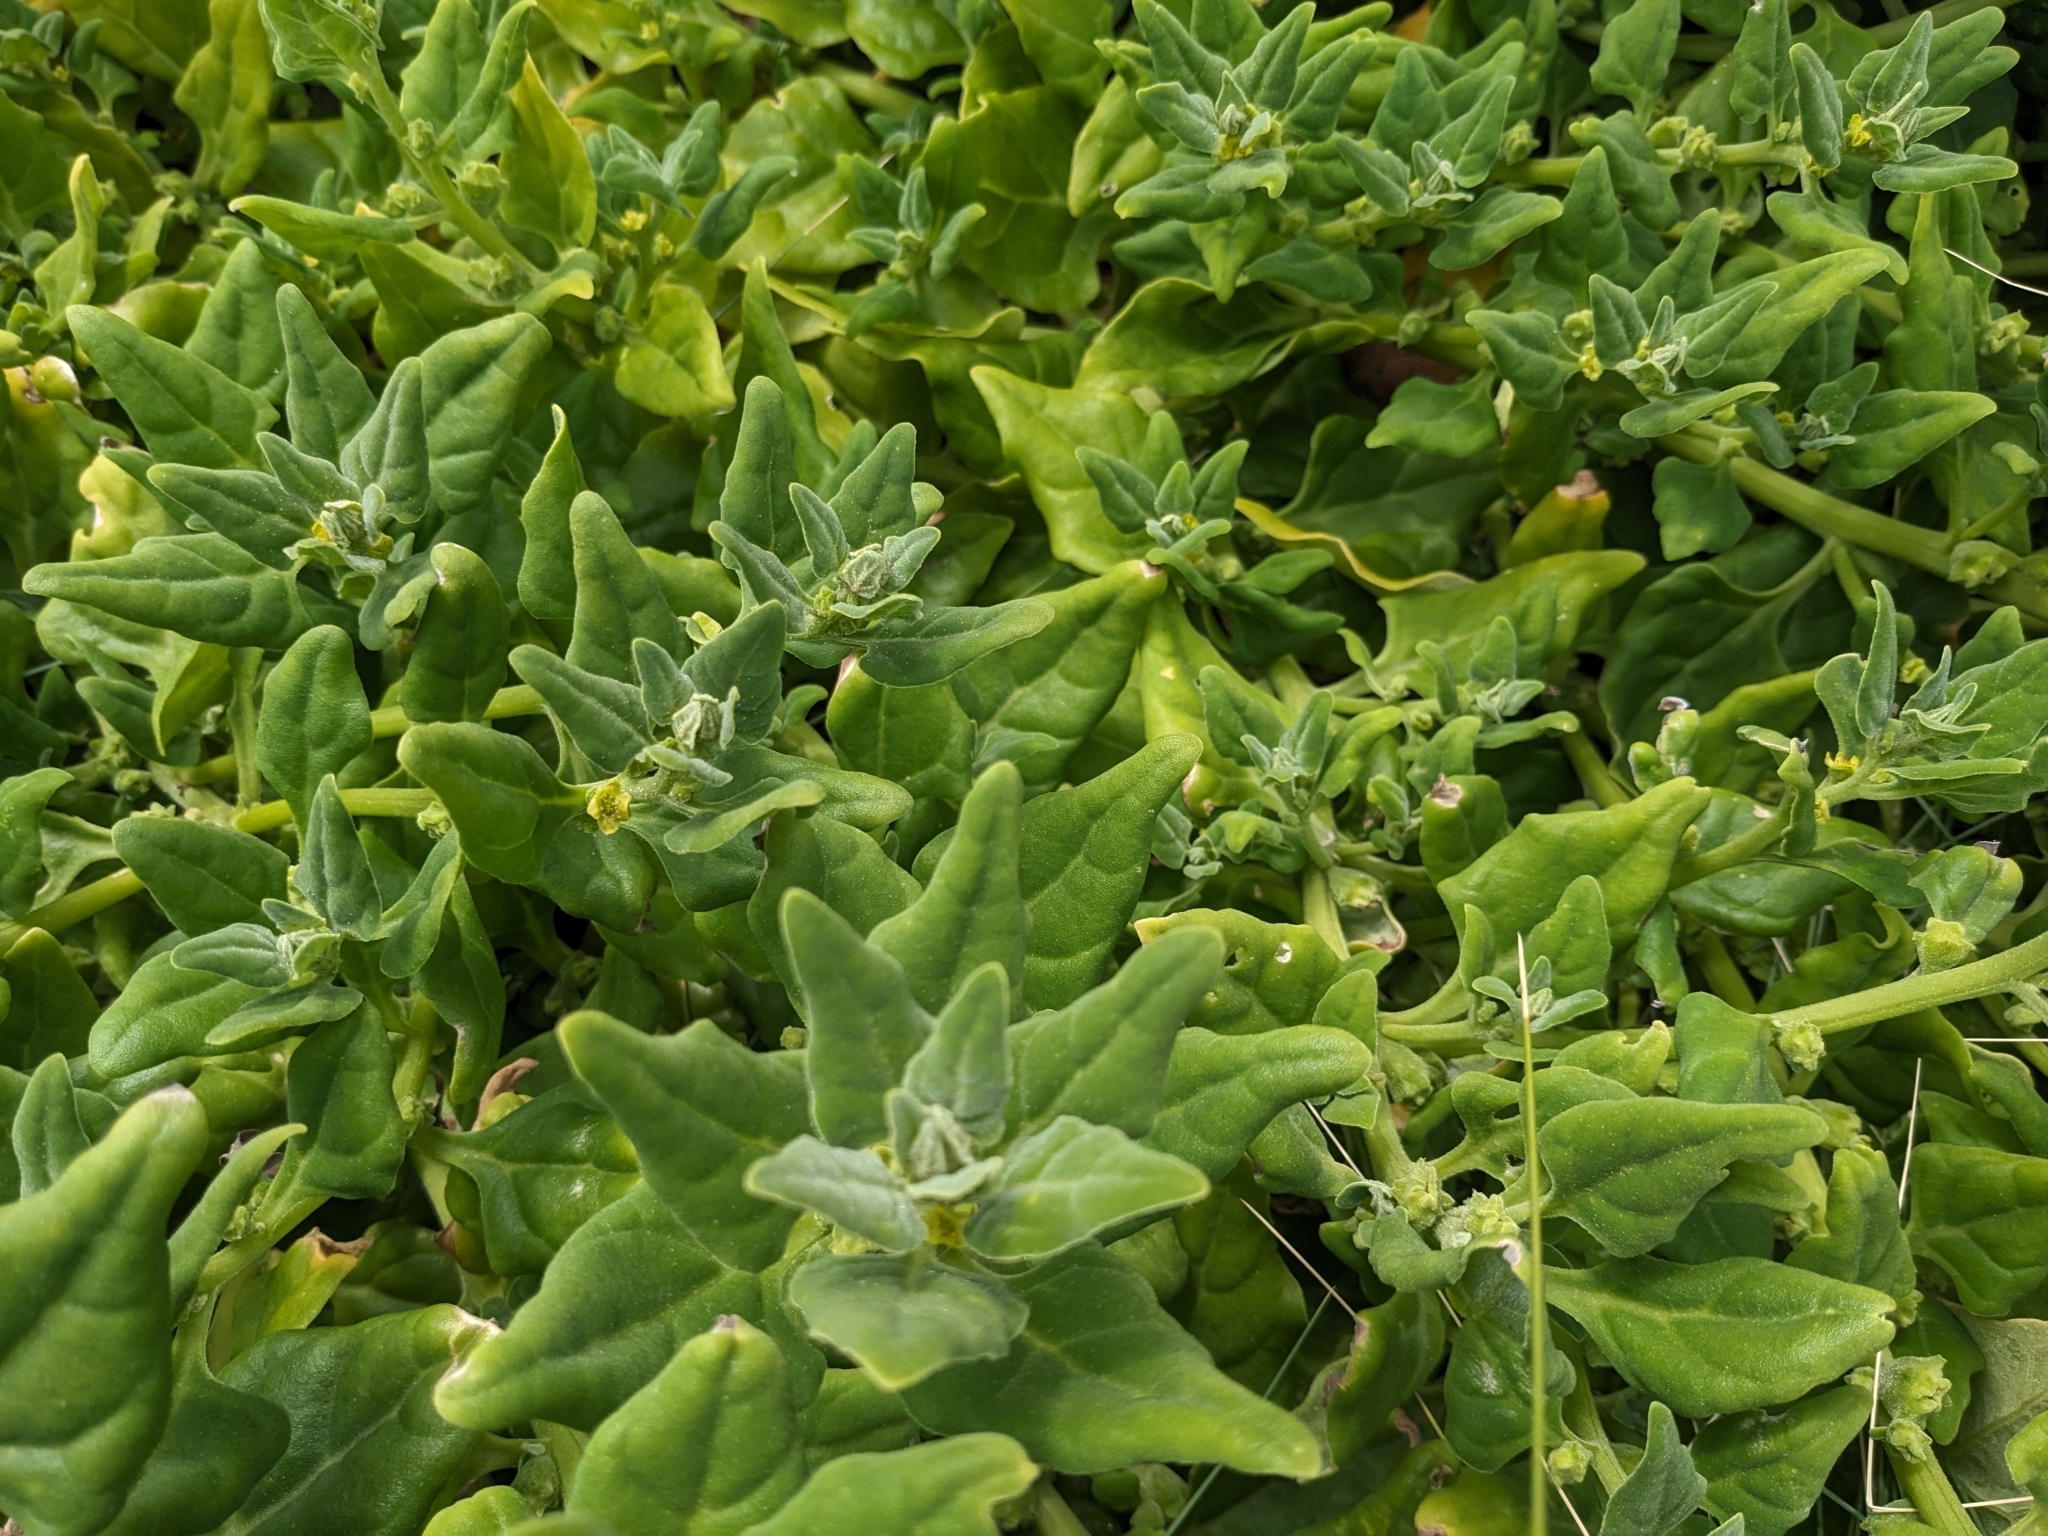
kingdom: Plantae
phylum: Tracheophyta
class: Magnoliopsida
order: Caryophyllales
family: Aizoaceae
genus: Tetragonia
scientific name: Tetragonia tetragonoides
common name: New zealand-spinach
